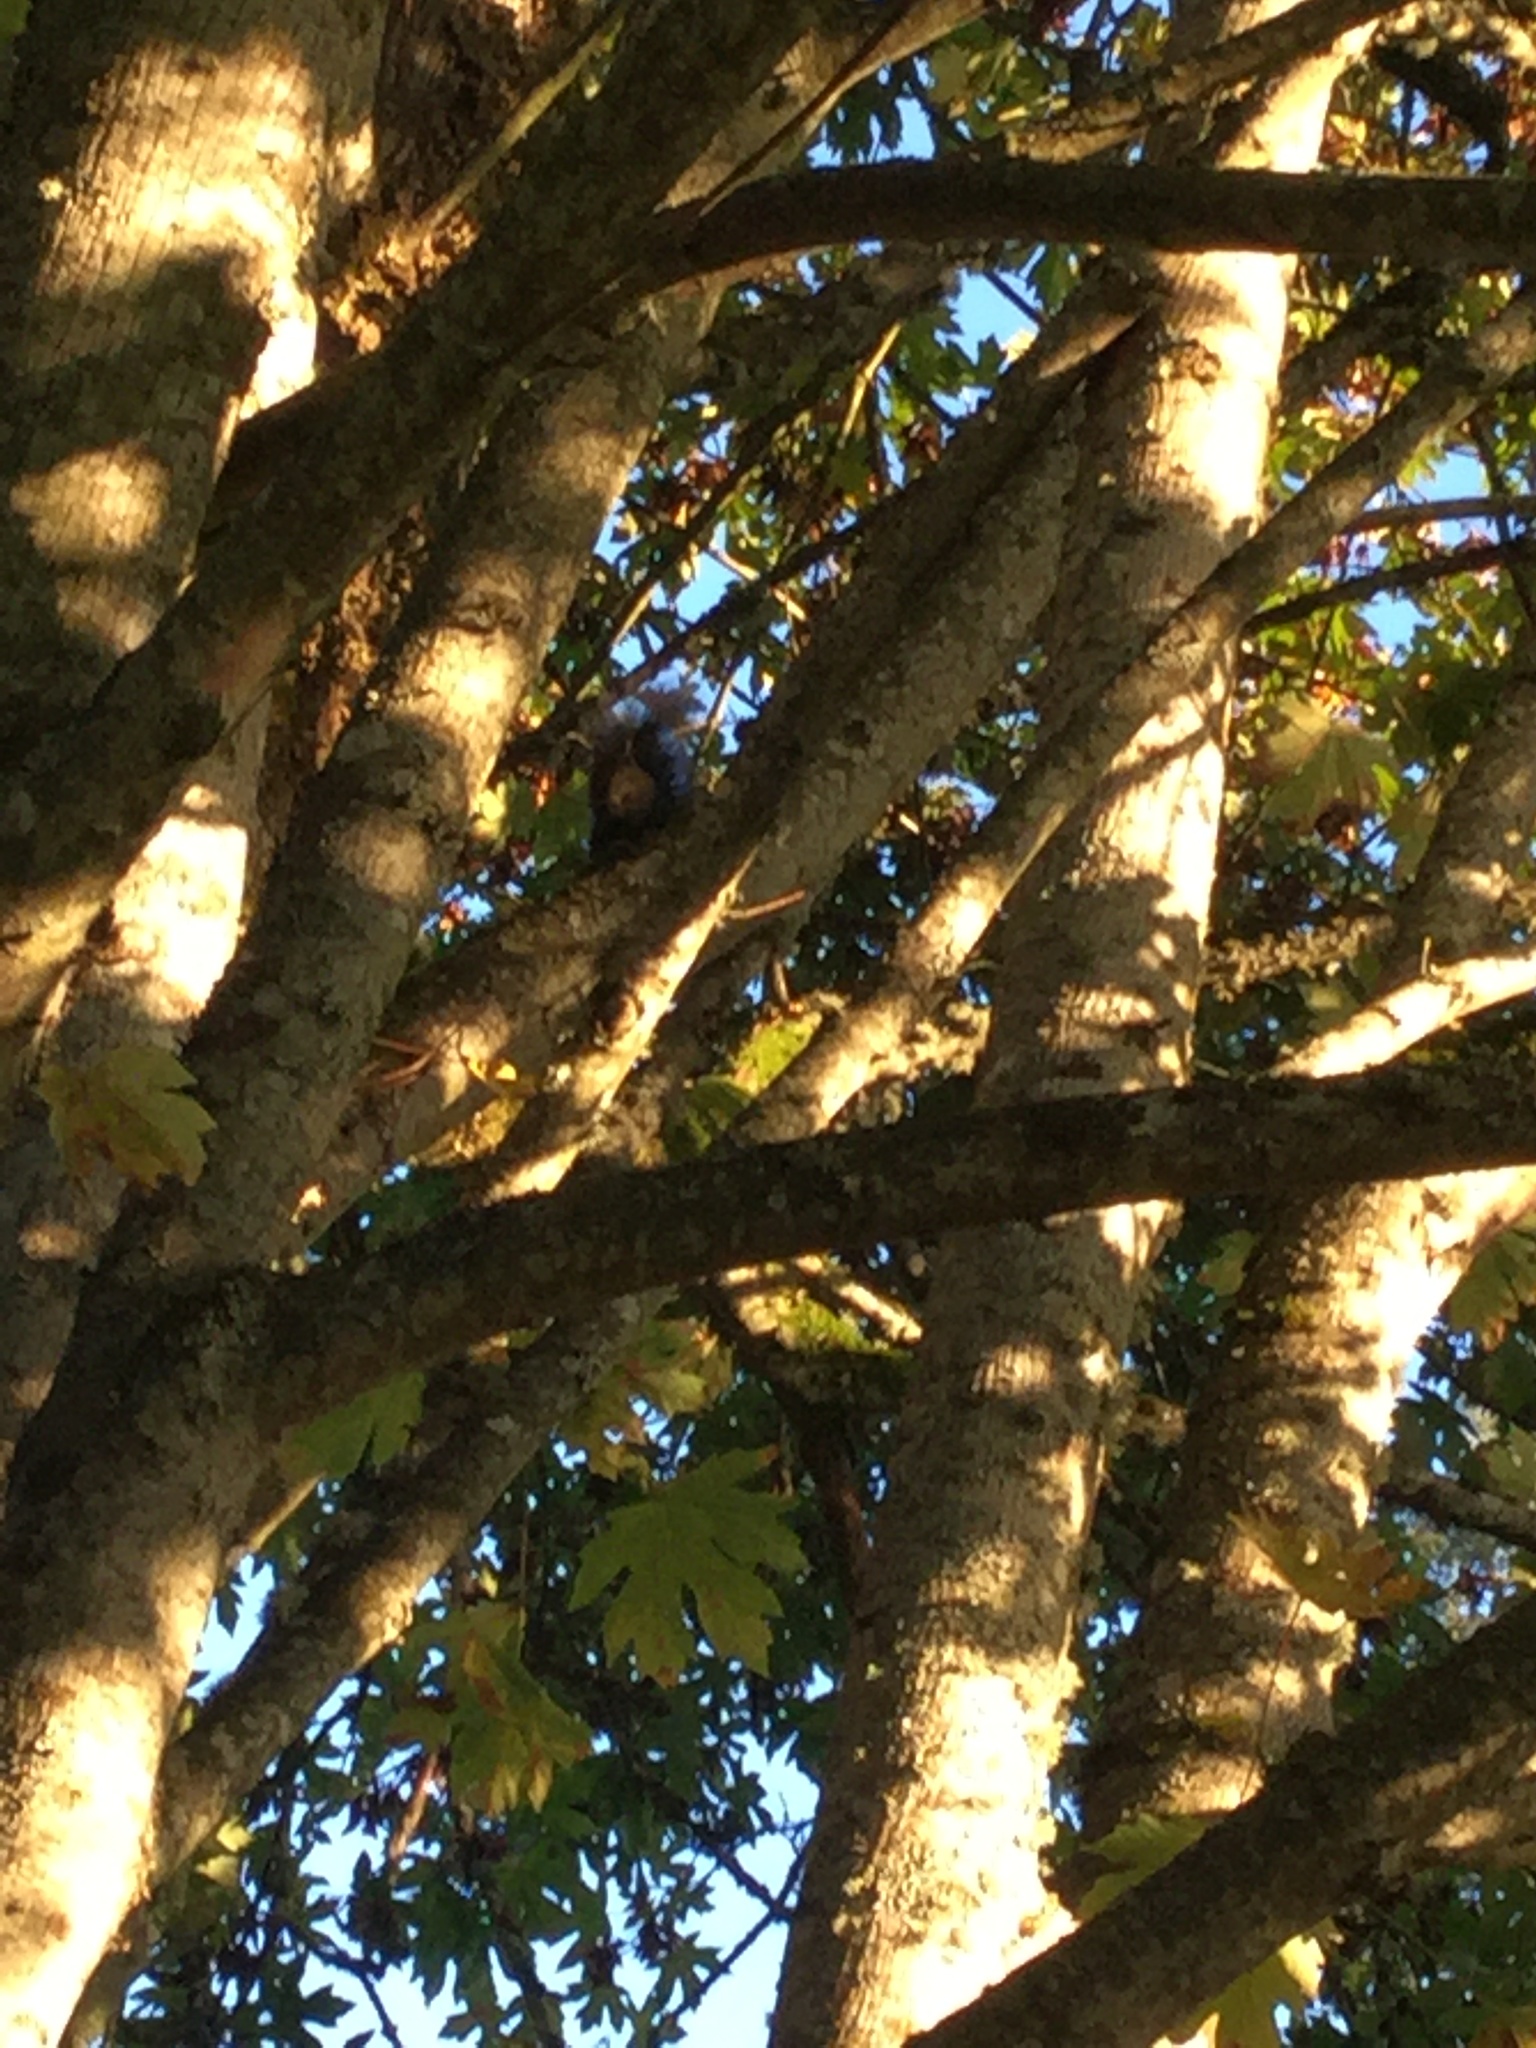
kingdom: Animalia
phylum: Chordata
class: Mammalia
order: Rodentia
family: Sciuridae
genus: Sciurus
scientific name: Sciurus carolinensis
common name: Eastern gray squirrel
